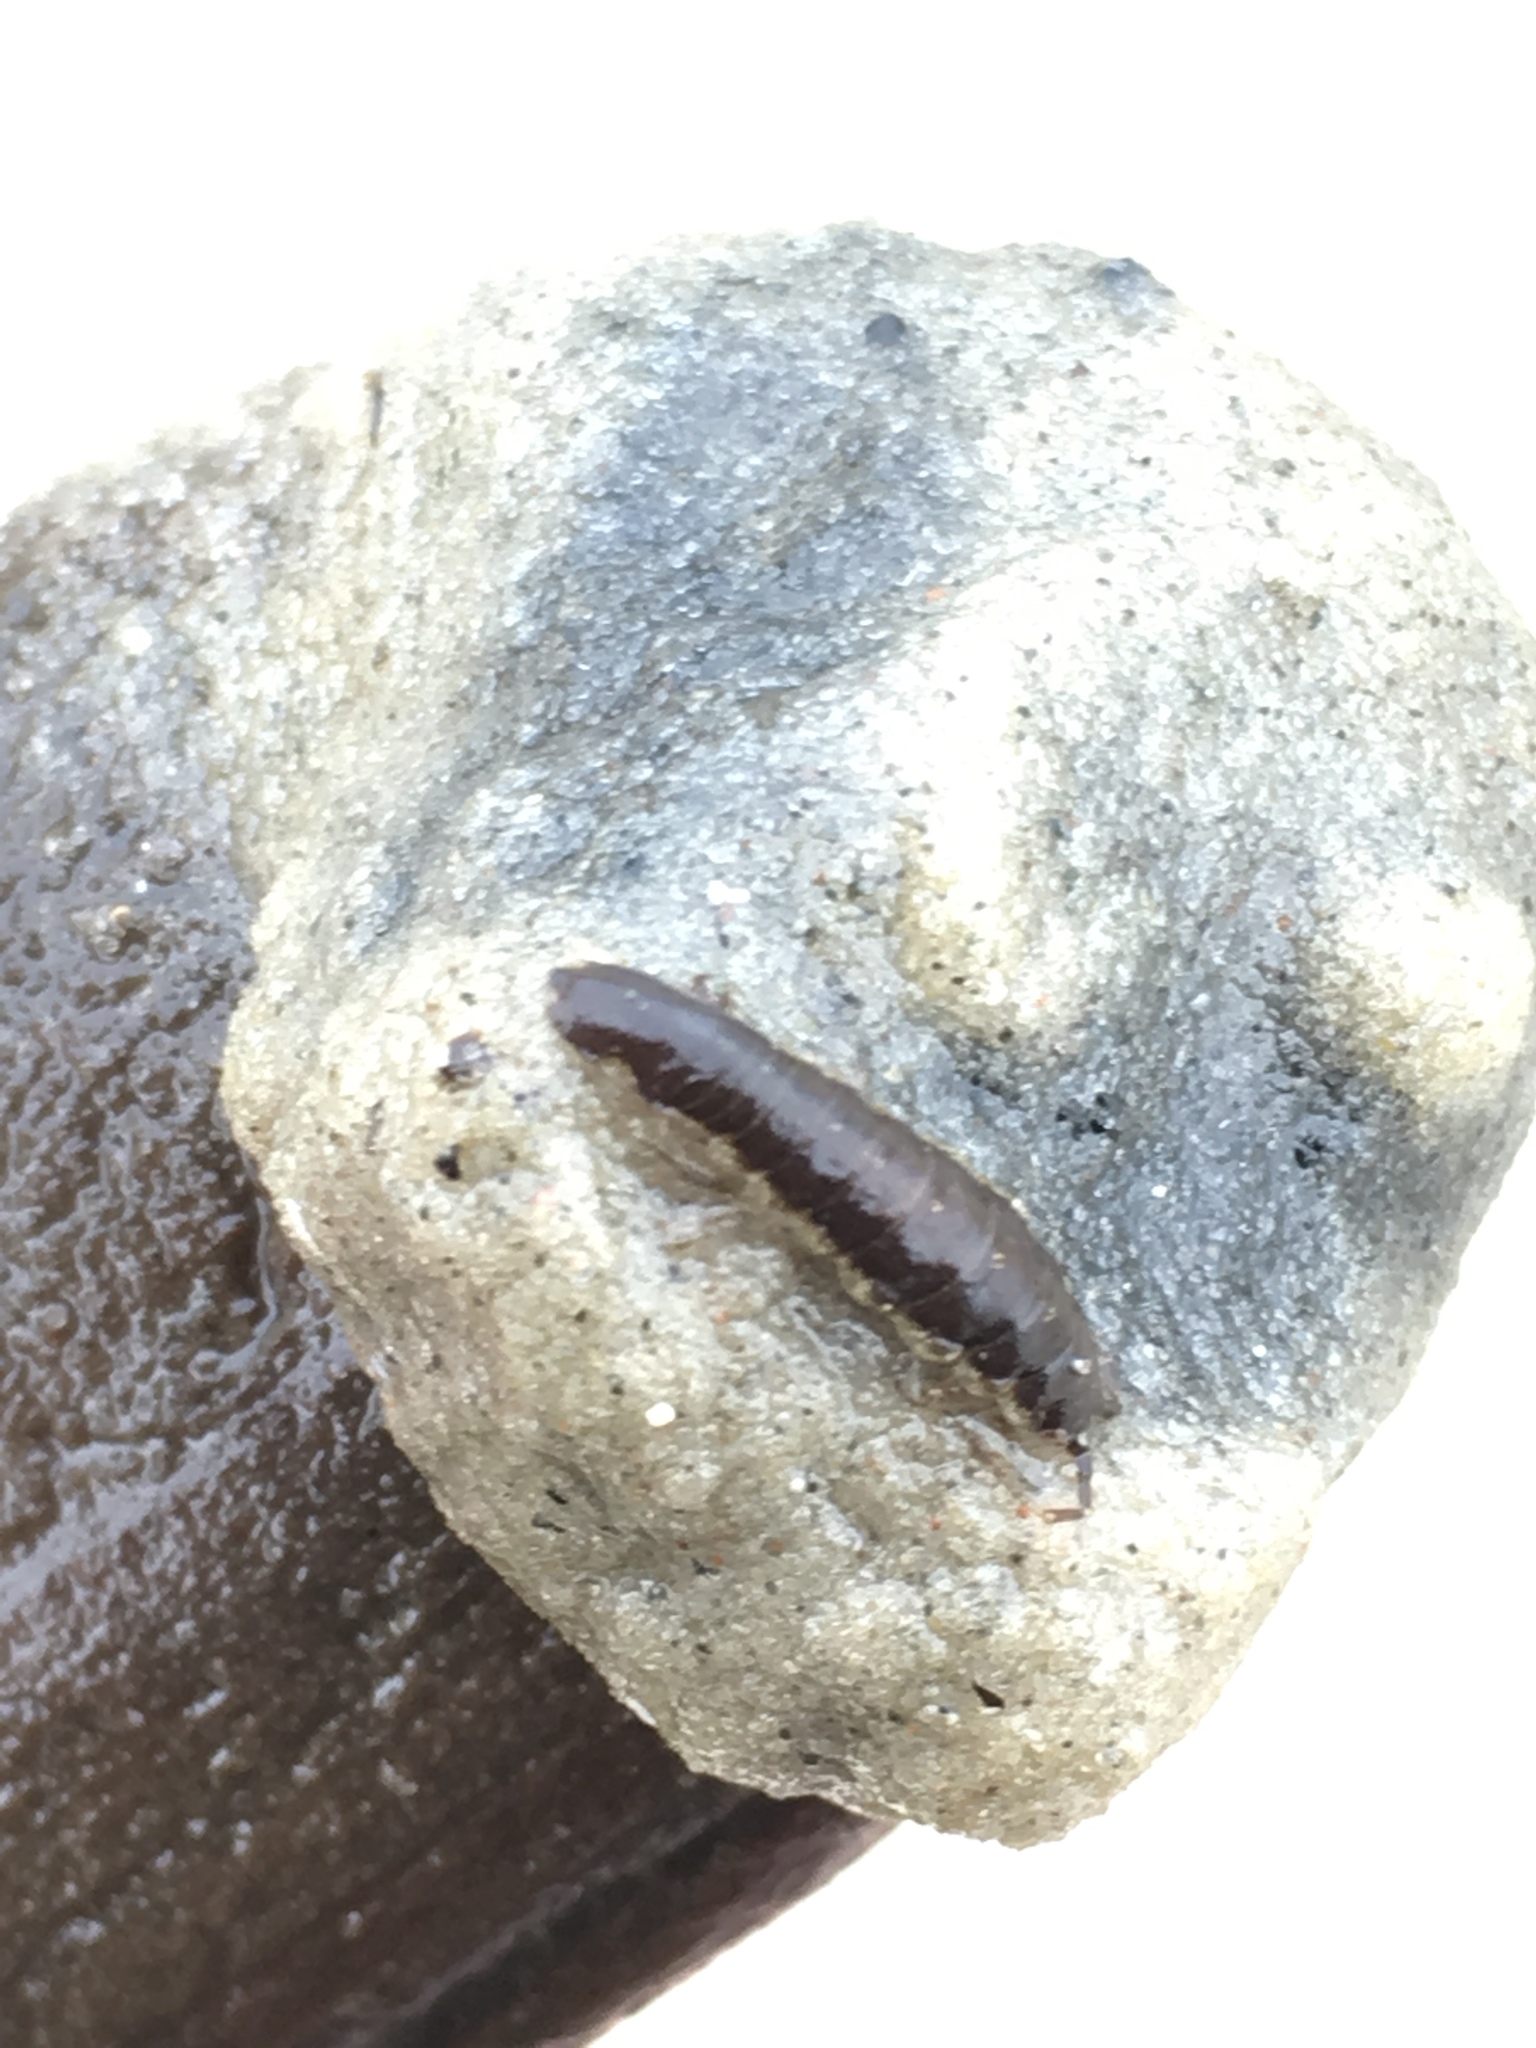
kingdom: Animalia
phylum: Arthropoda
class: Malacostraca
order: Isopoda
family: Idoteidae
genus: Idotea
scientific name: Idotea balthica
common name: Baltic isopod
